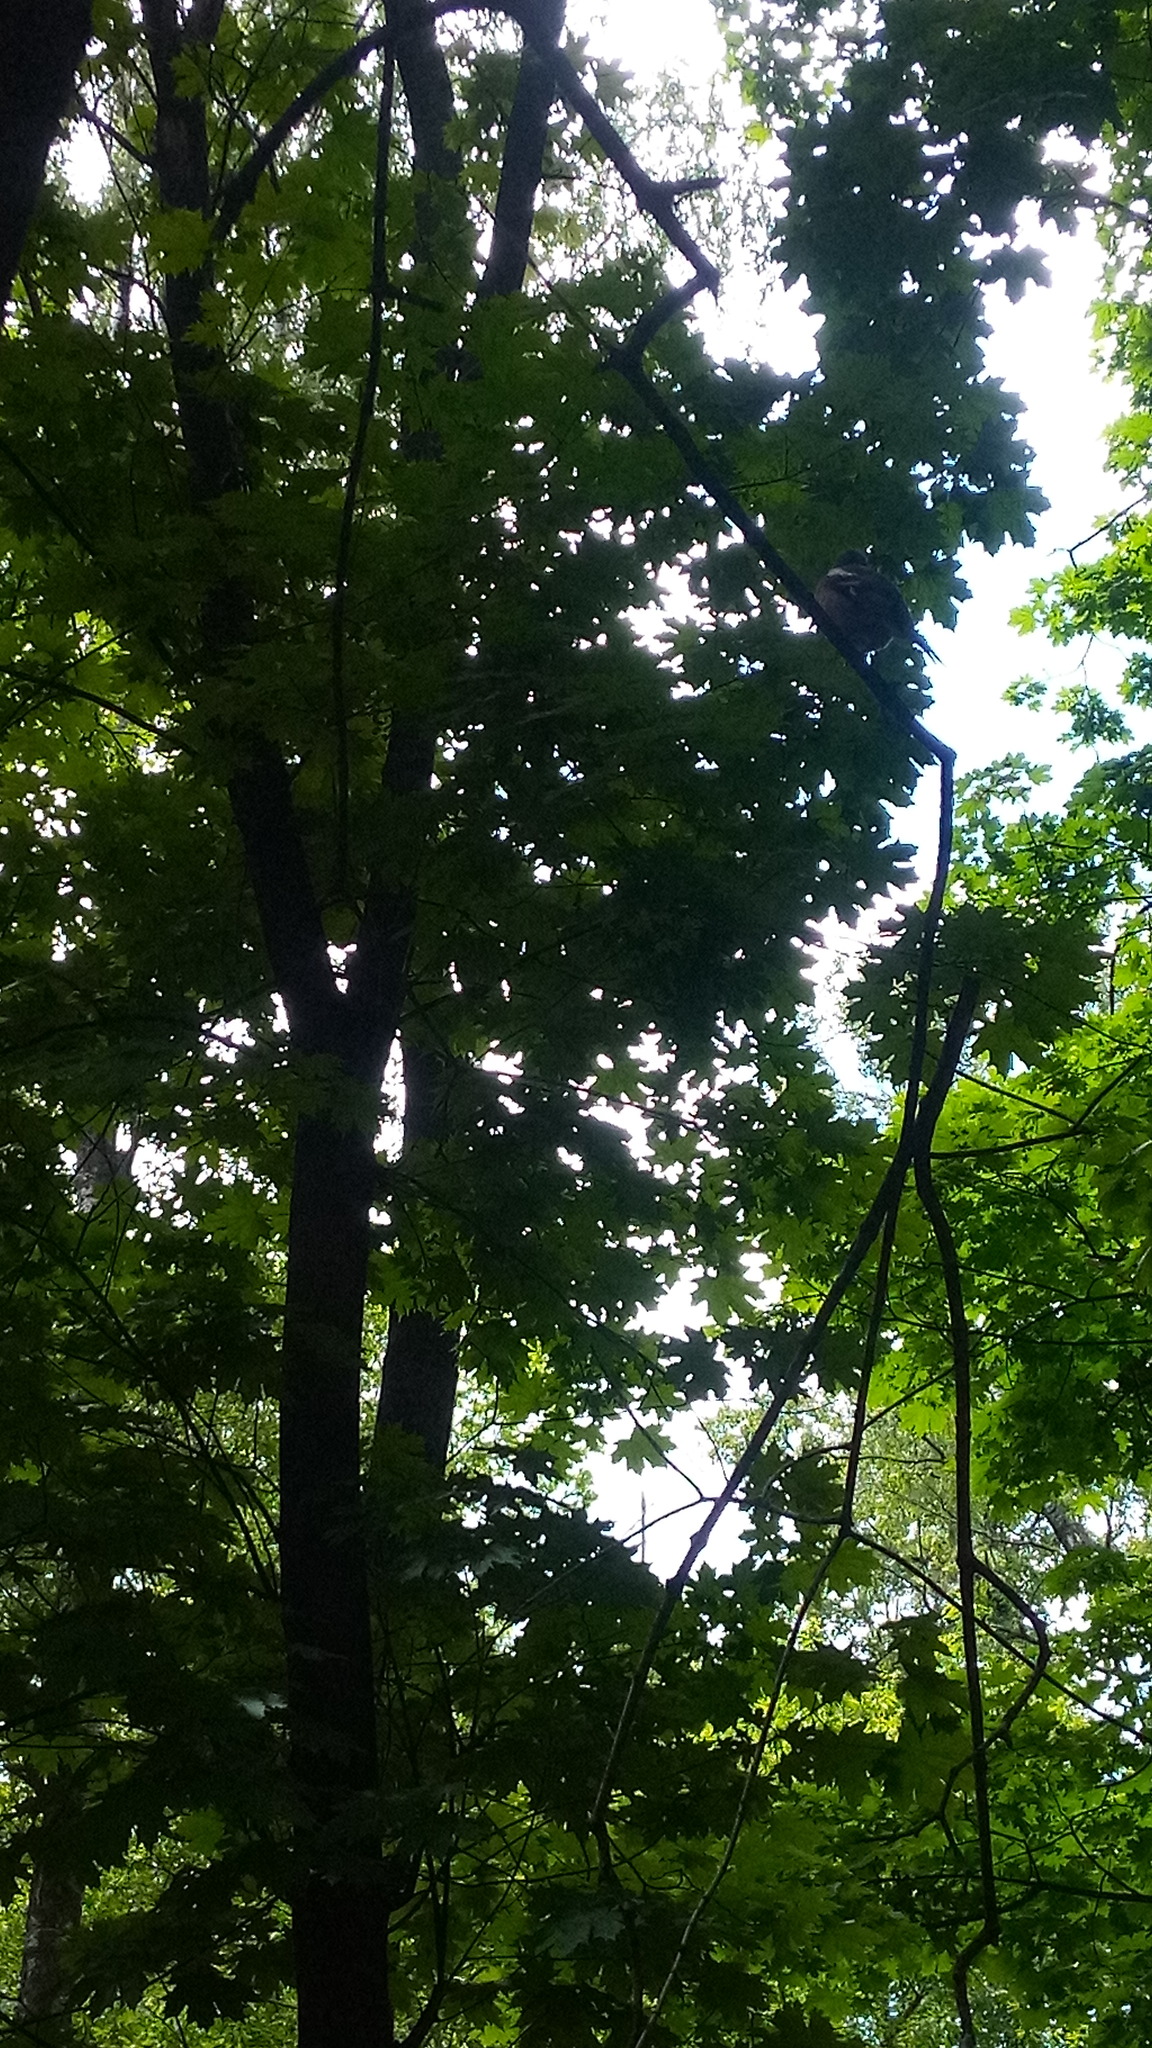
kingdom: Animalia
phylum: Chordata
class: Aves
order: Passeriformes
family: Fringillidae
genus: Fringilla
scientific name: Fringilla coelebs
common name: Common chaffinch
